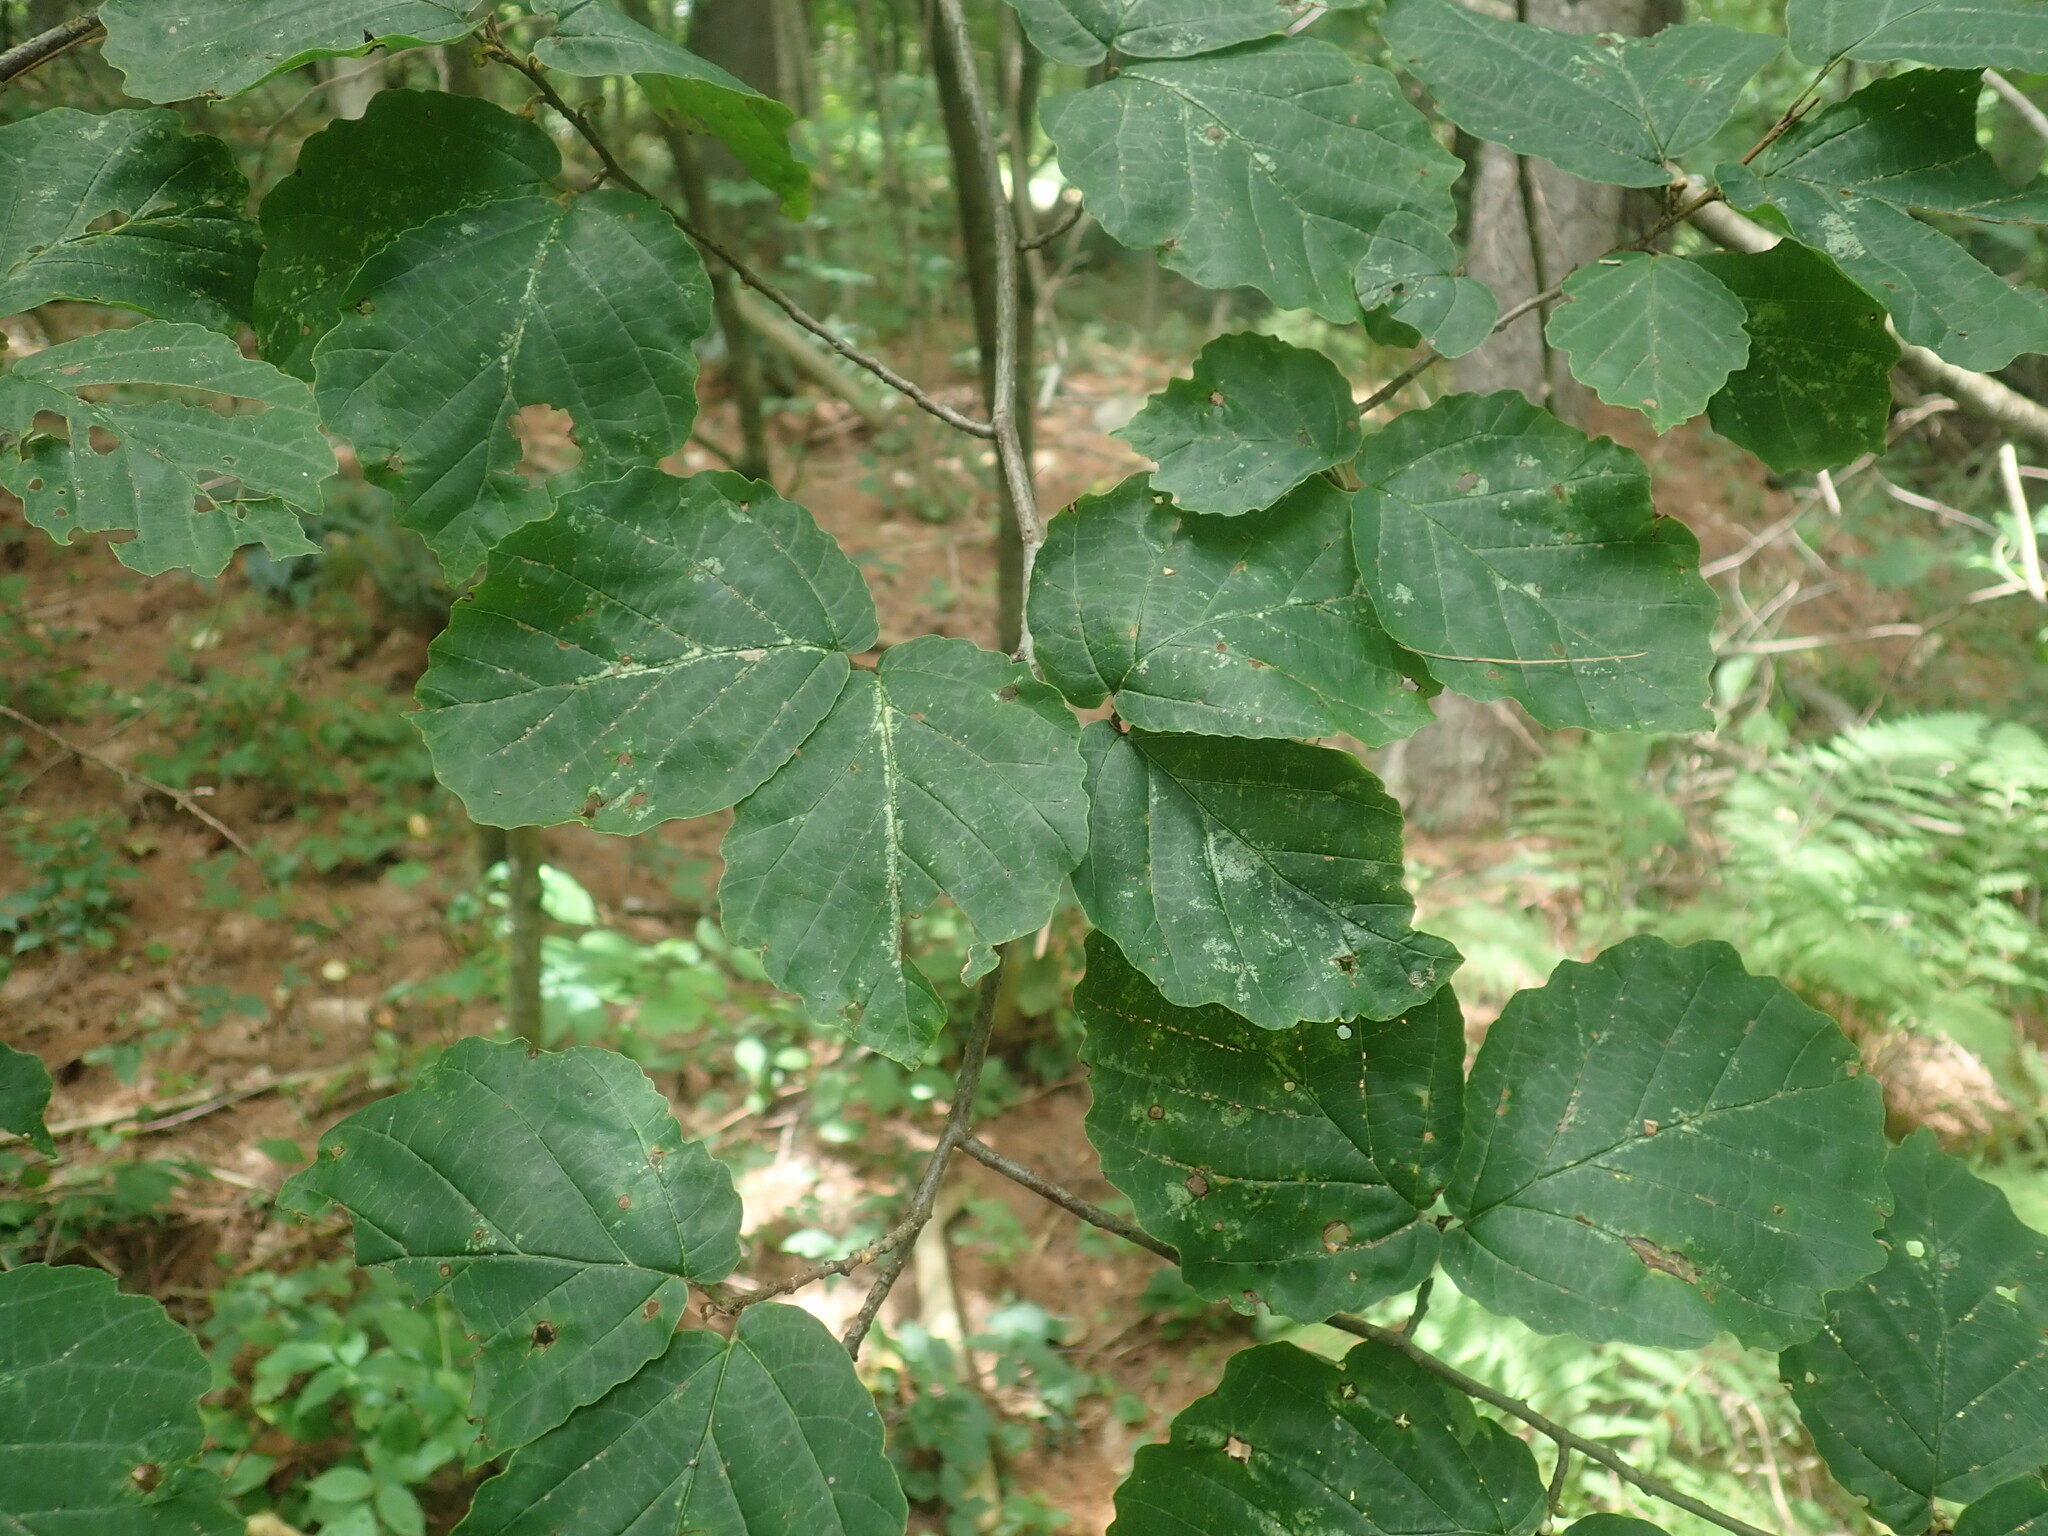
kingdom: Plantae
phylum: Tracheophyta
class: Magnoliopsida
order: Saxifragales
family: Hamamelidaceae
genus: Hamamelis
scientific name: Hamamelis virginiana
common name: Witch-hazel
